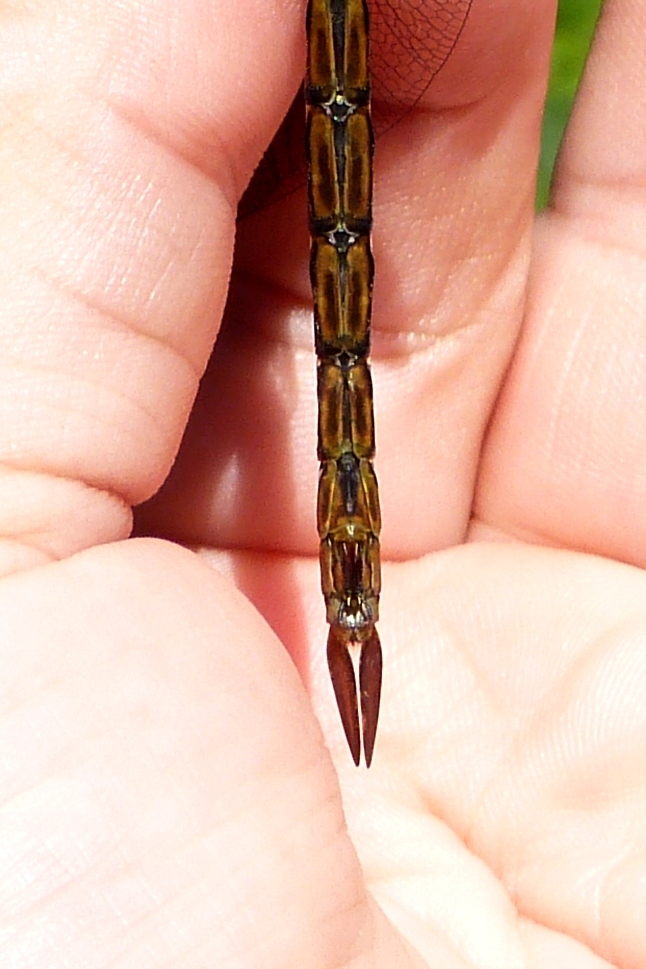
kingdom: Animalia
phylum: Arthropoda
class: Insecta
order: Odonata
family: Aeshnidae
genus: Aeshna
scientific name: Aeshna tuberculifera
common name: Aeschne à tubercules
